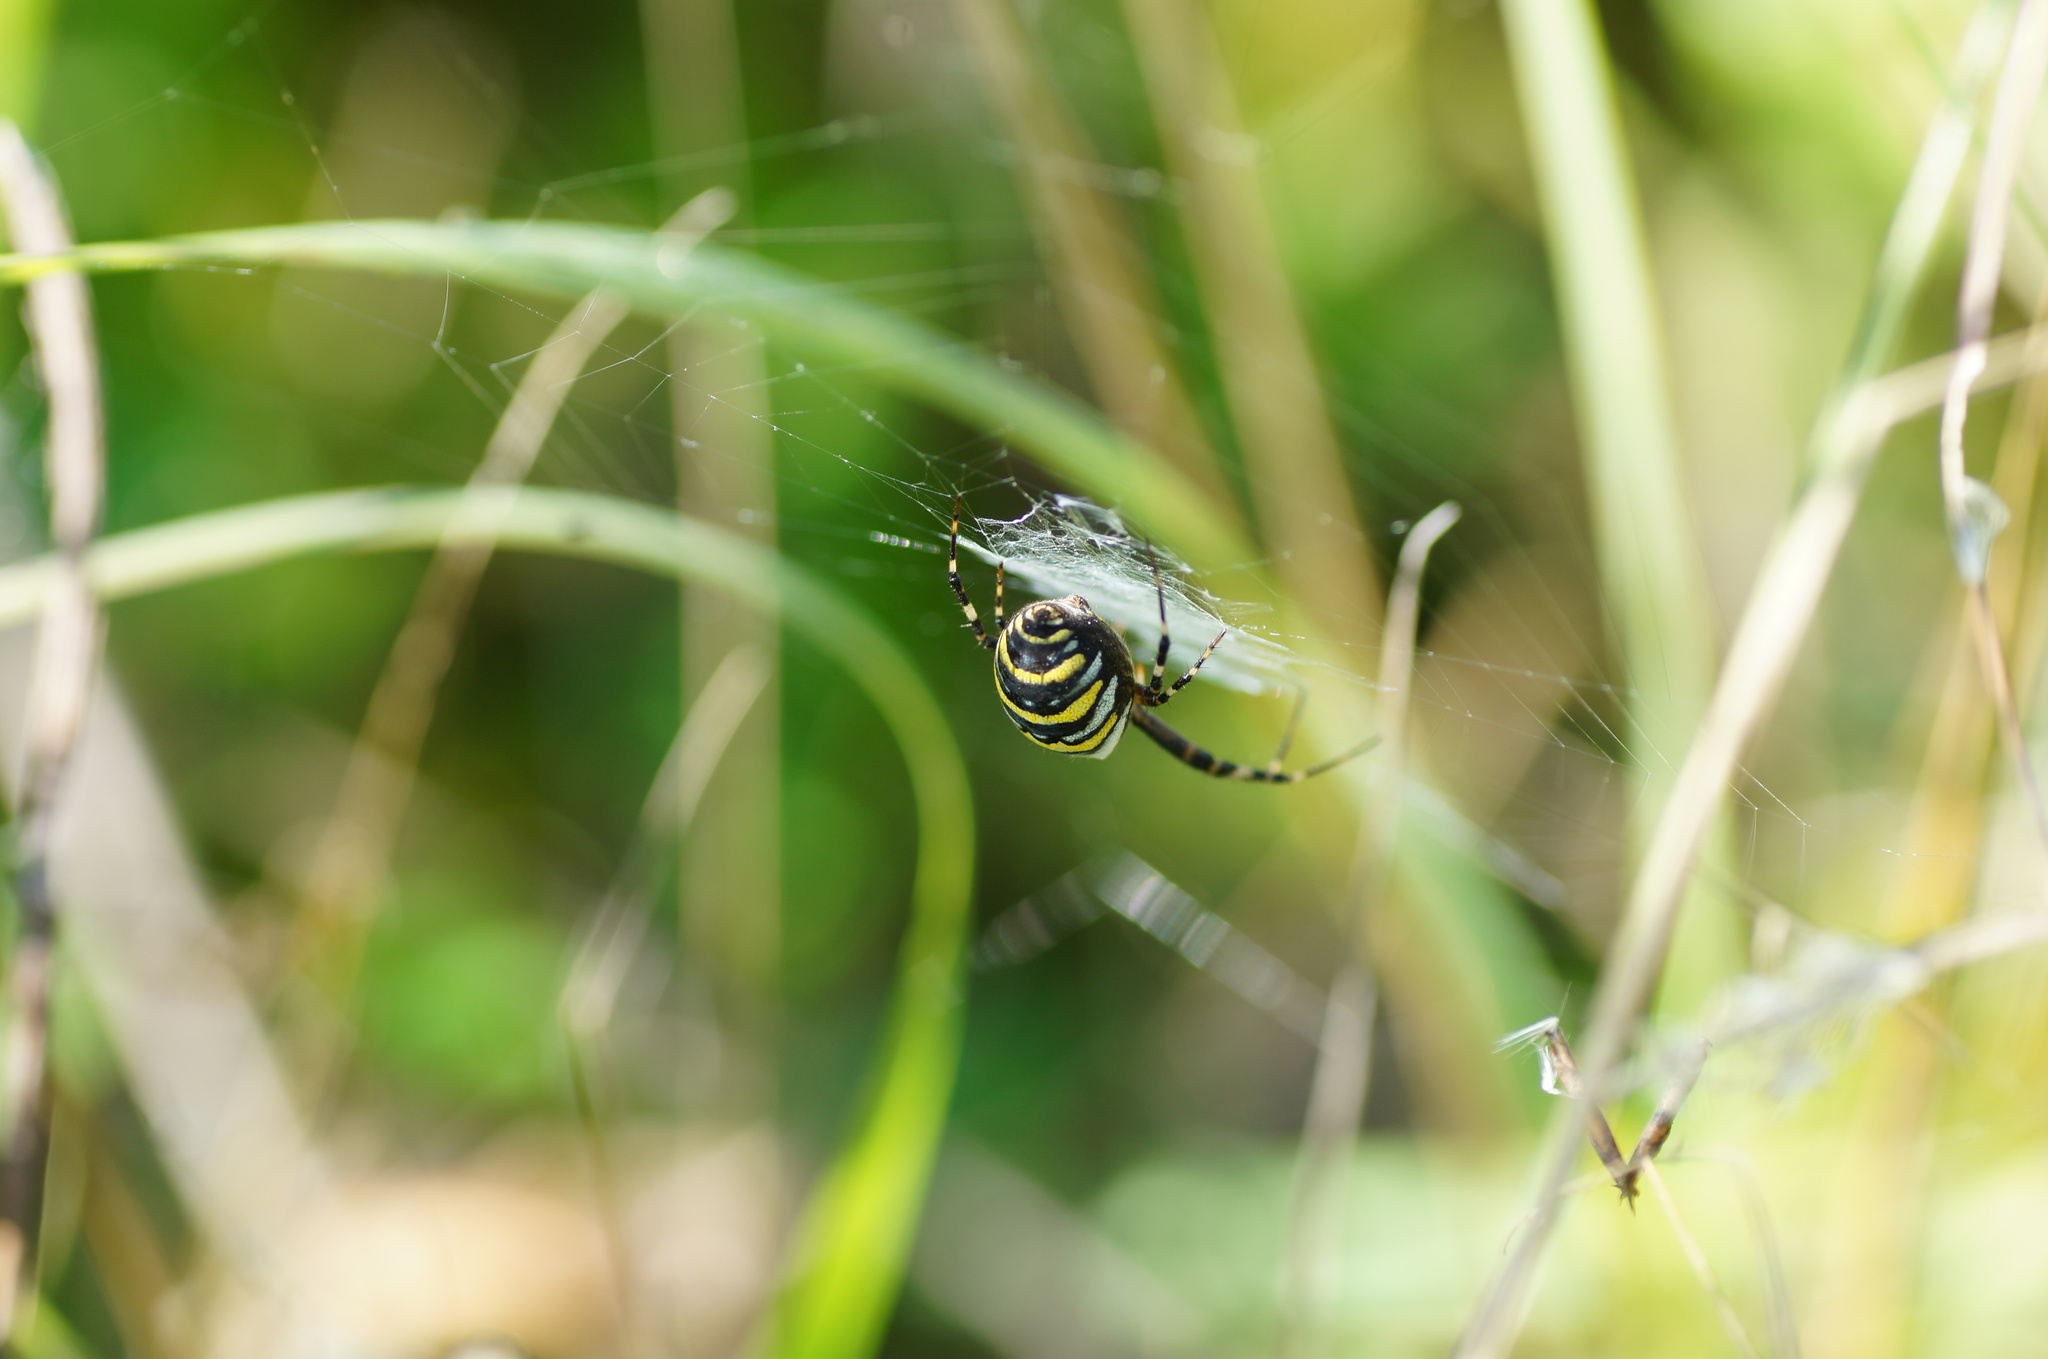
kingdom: Animalia
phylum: Arthropoda
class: Arachnida
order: Araneae
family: Araneidae
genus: Argiope
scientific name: Argiope bruennichi
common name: Wasp spider
